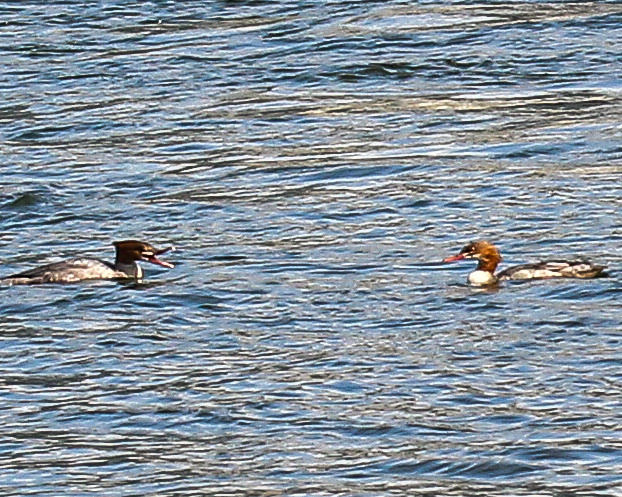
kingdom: Animalia
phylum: Chordata
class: Aves
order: Anseriformes
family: Anatidae
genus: Mergus
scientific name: Mergus merganser
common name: Common merganser
